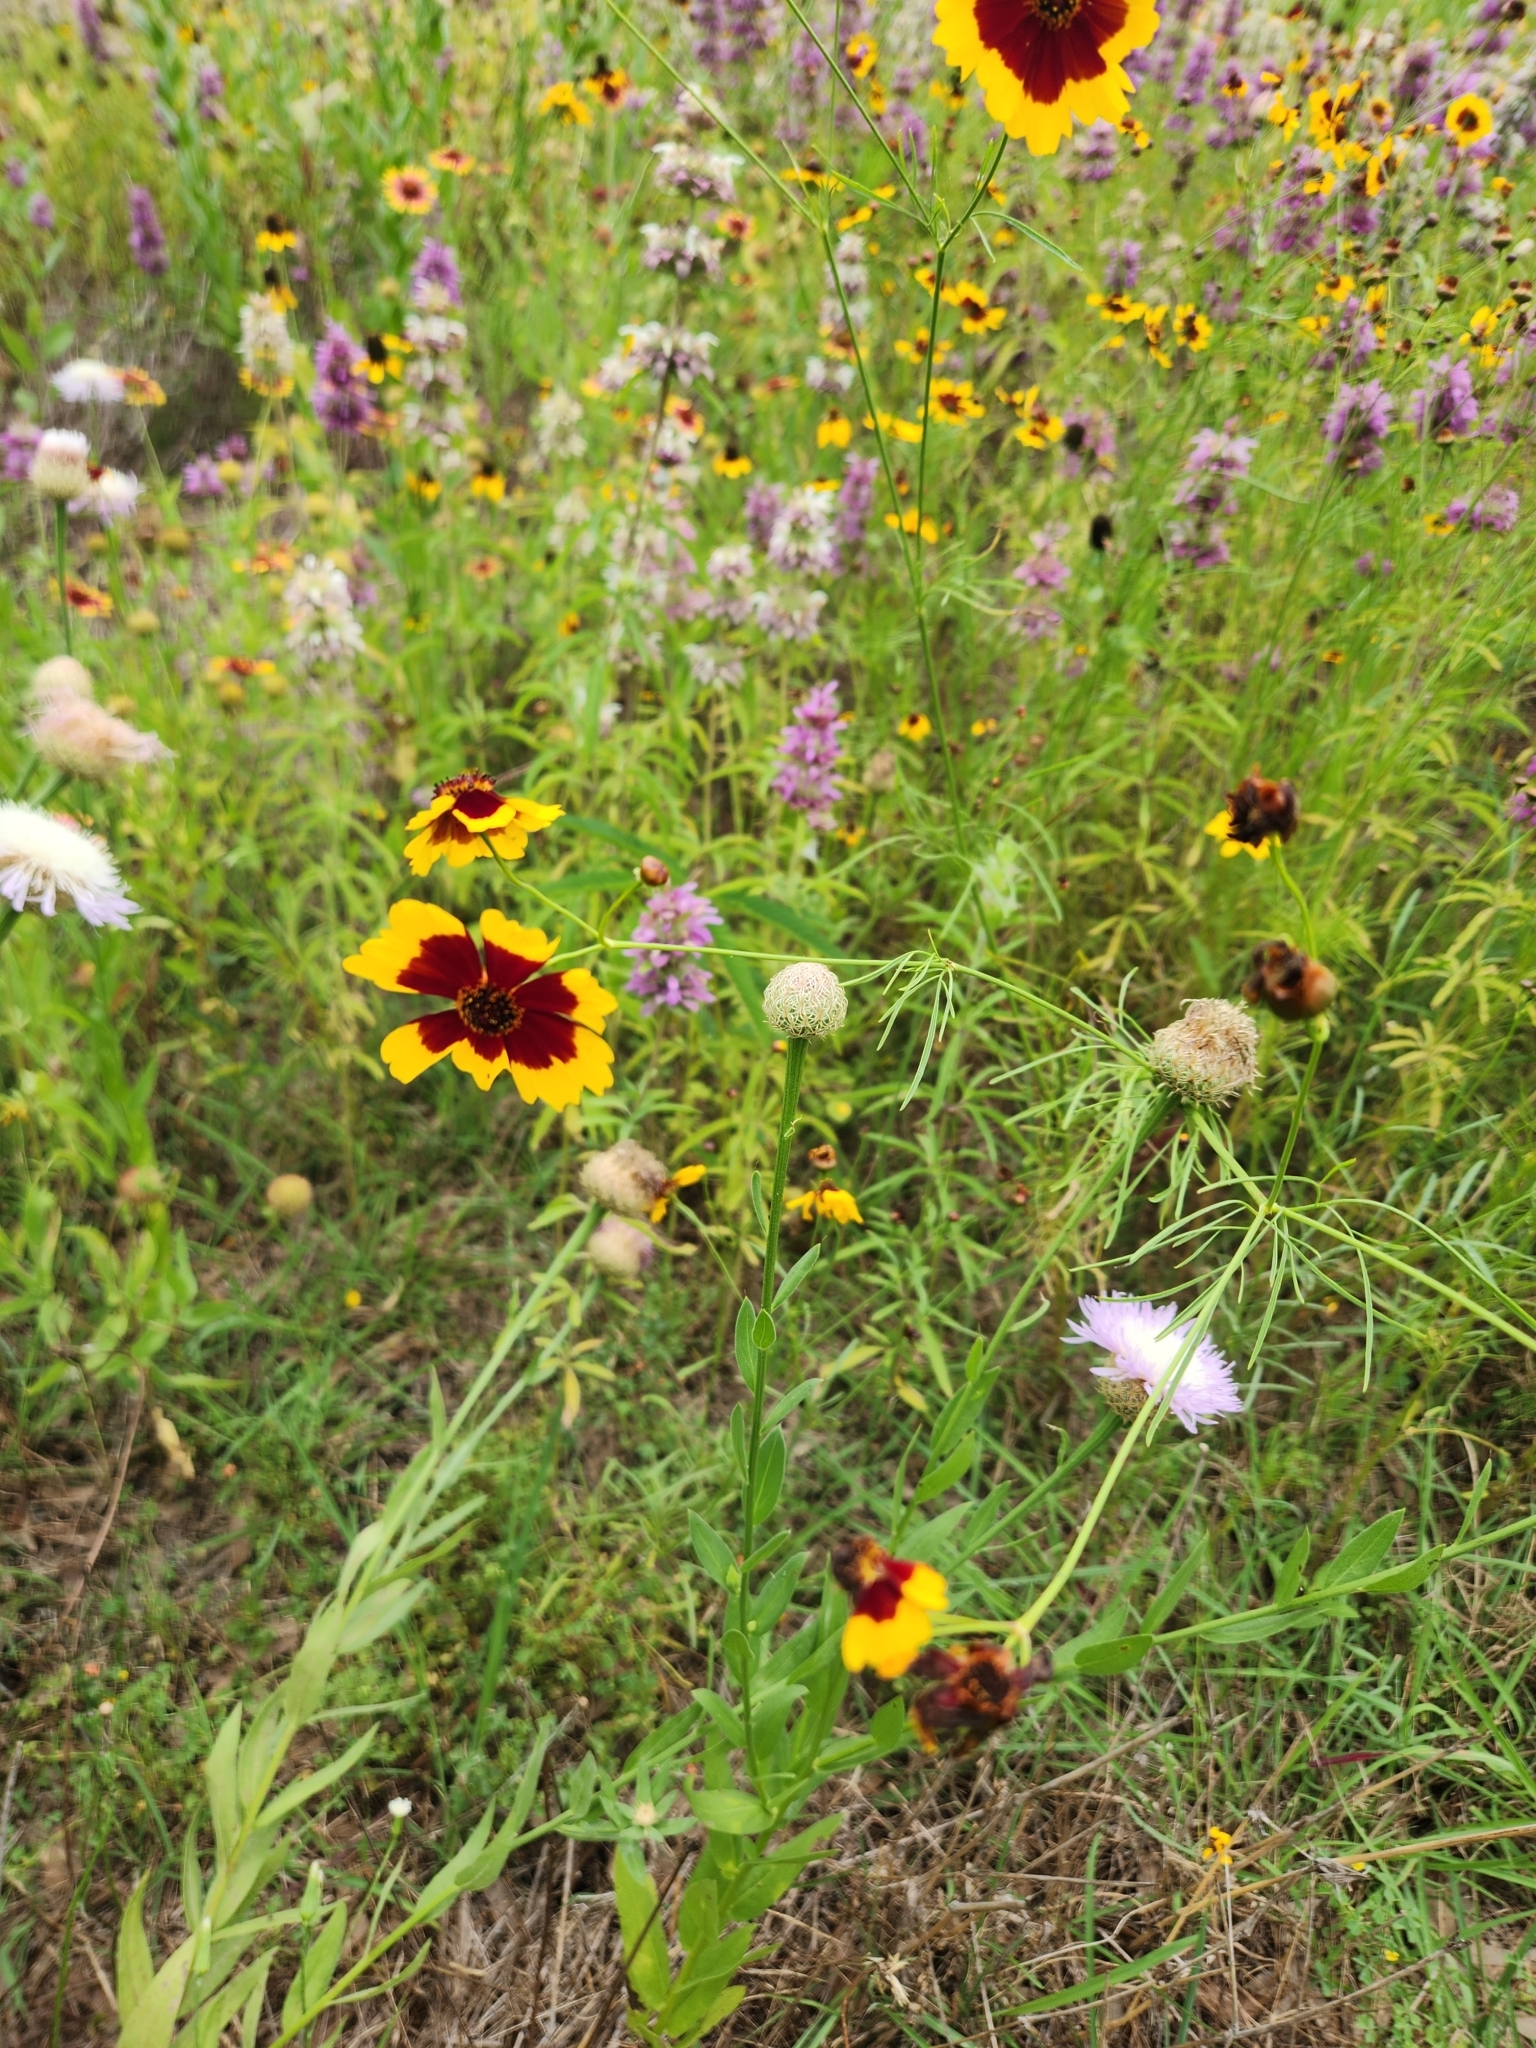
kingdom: Plantae
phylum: Tracheophyta
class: Magnoliopsida
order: Asterales
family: Asteraceae
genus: Coreopsis
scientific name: Coreopsis tinctoria
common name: Garden tickseed
